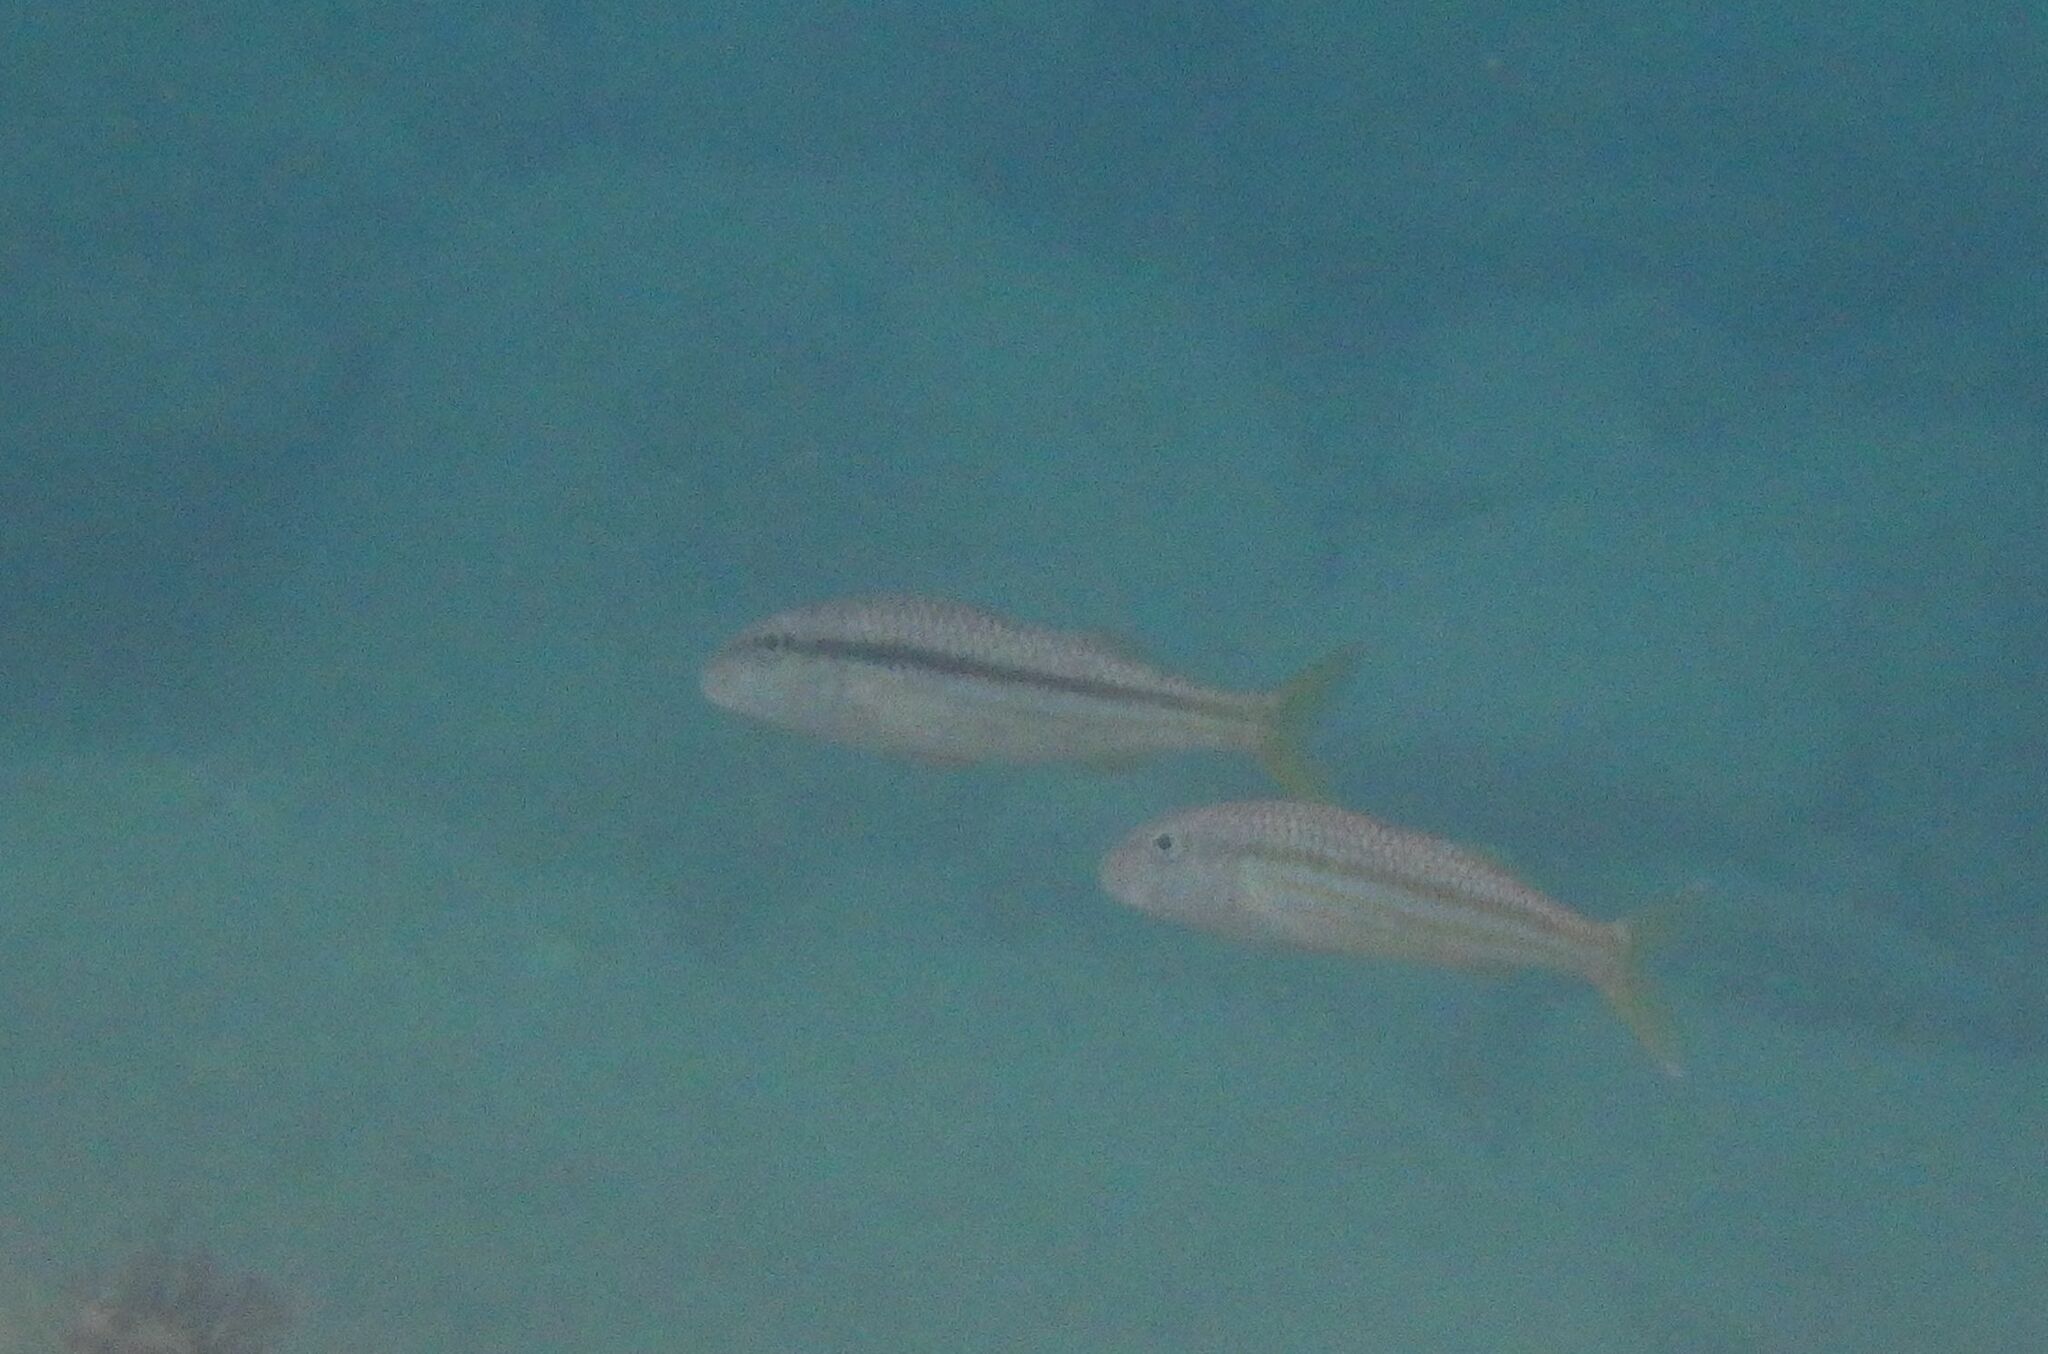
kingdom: Animalia
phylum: Chordata
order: Perciformes
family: Mullidae
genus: Mullus
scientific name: Mullus surmuletus
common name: Red mullet
